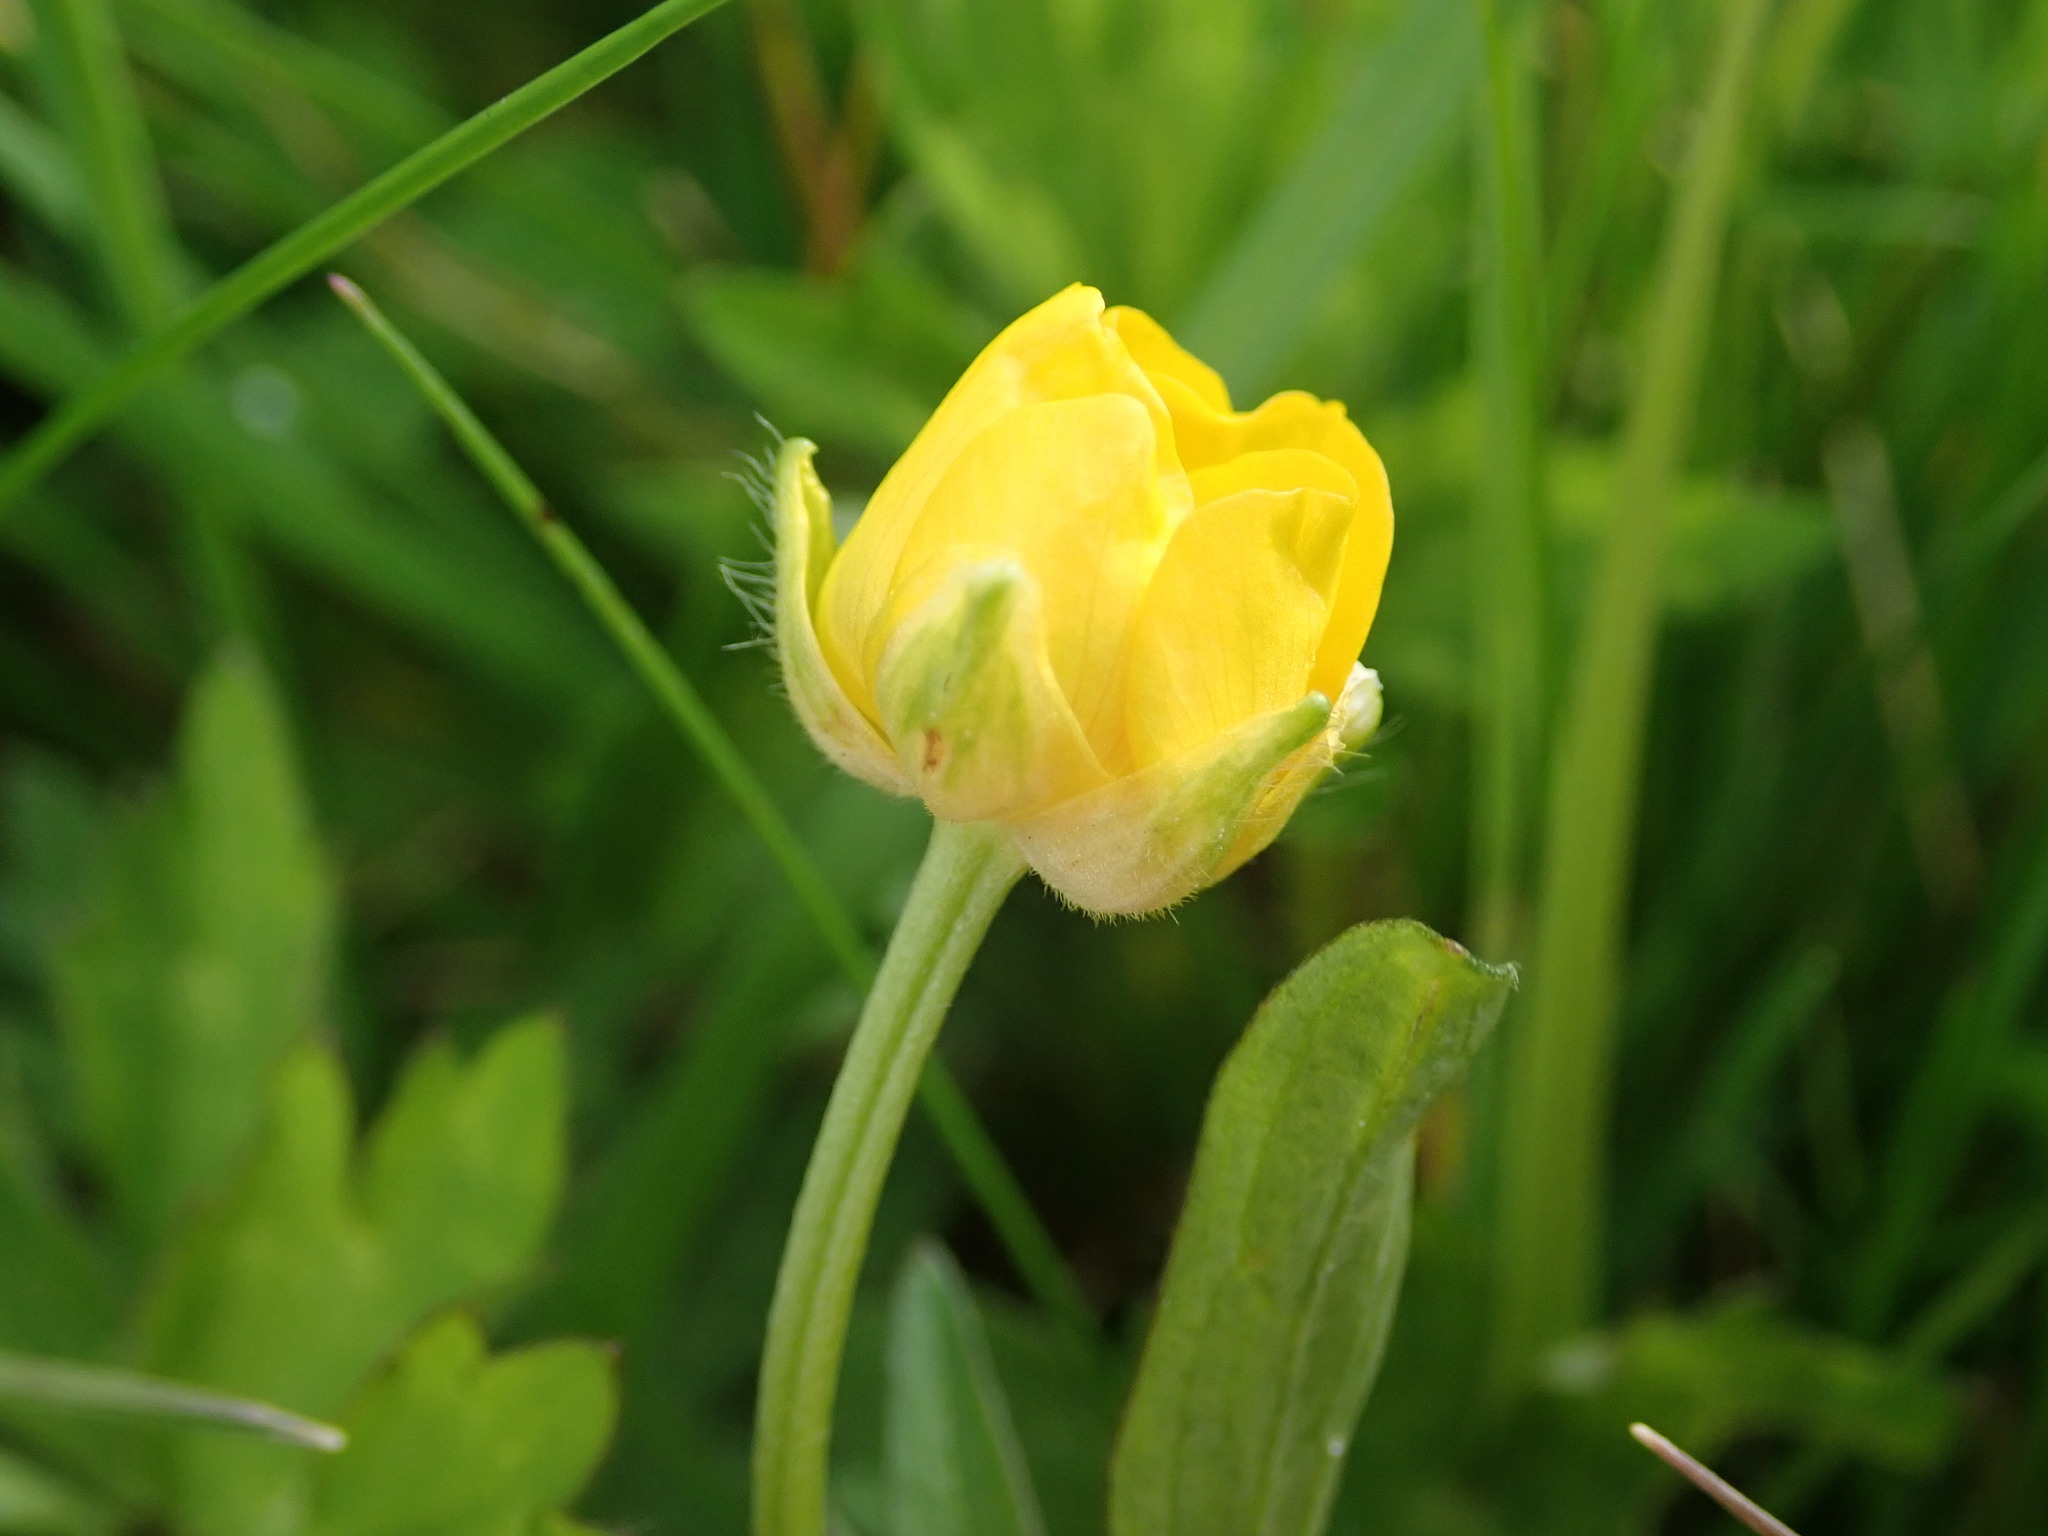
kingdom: Plantae
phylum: Tracheophyta
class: Magnoliopsida
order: Ranunculales
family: Ranunculaceae
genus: Ranunculus
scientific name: Ranunculus repens
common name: Creeping buttercup
